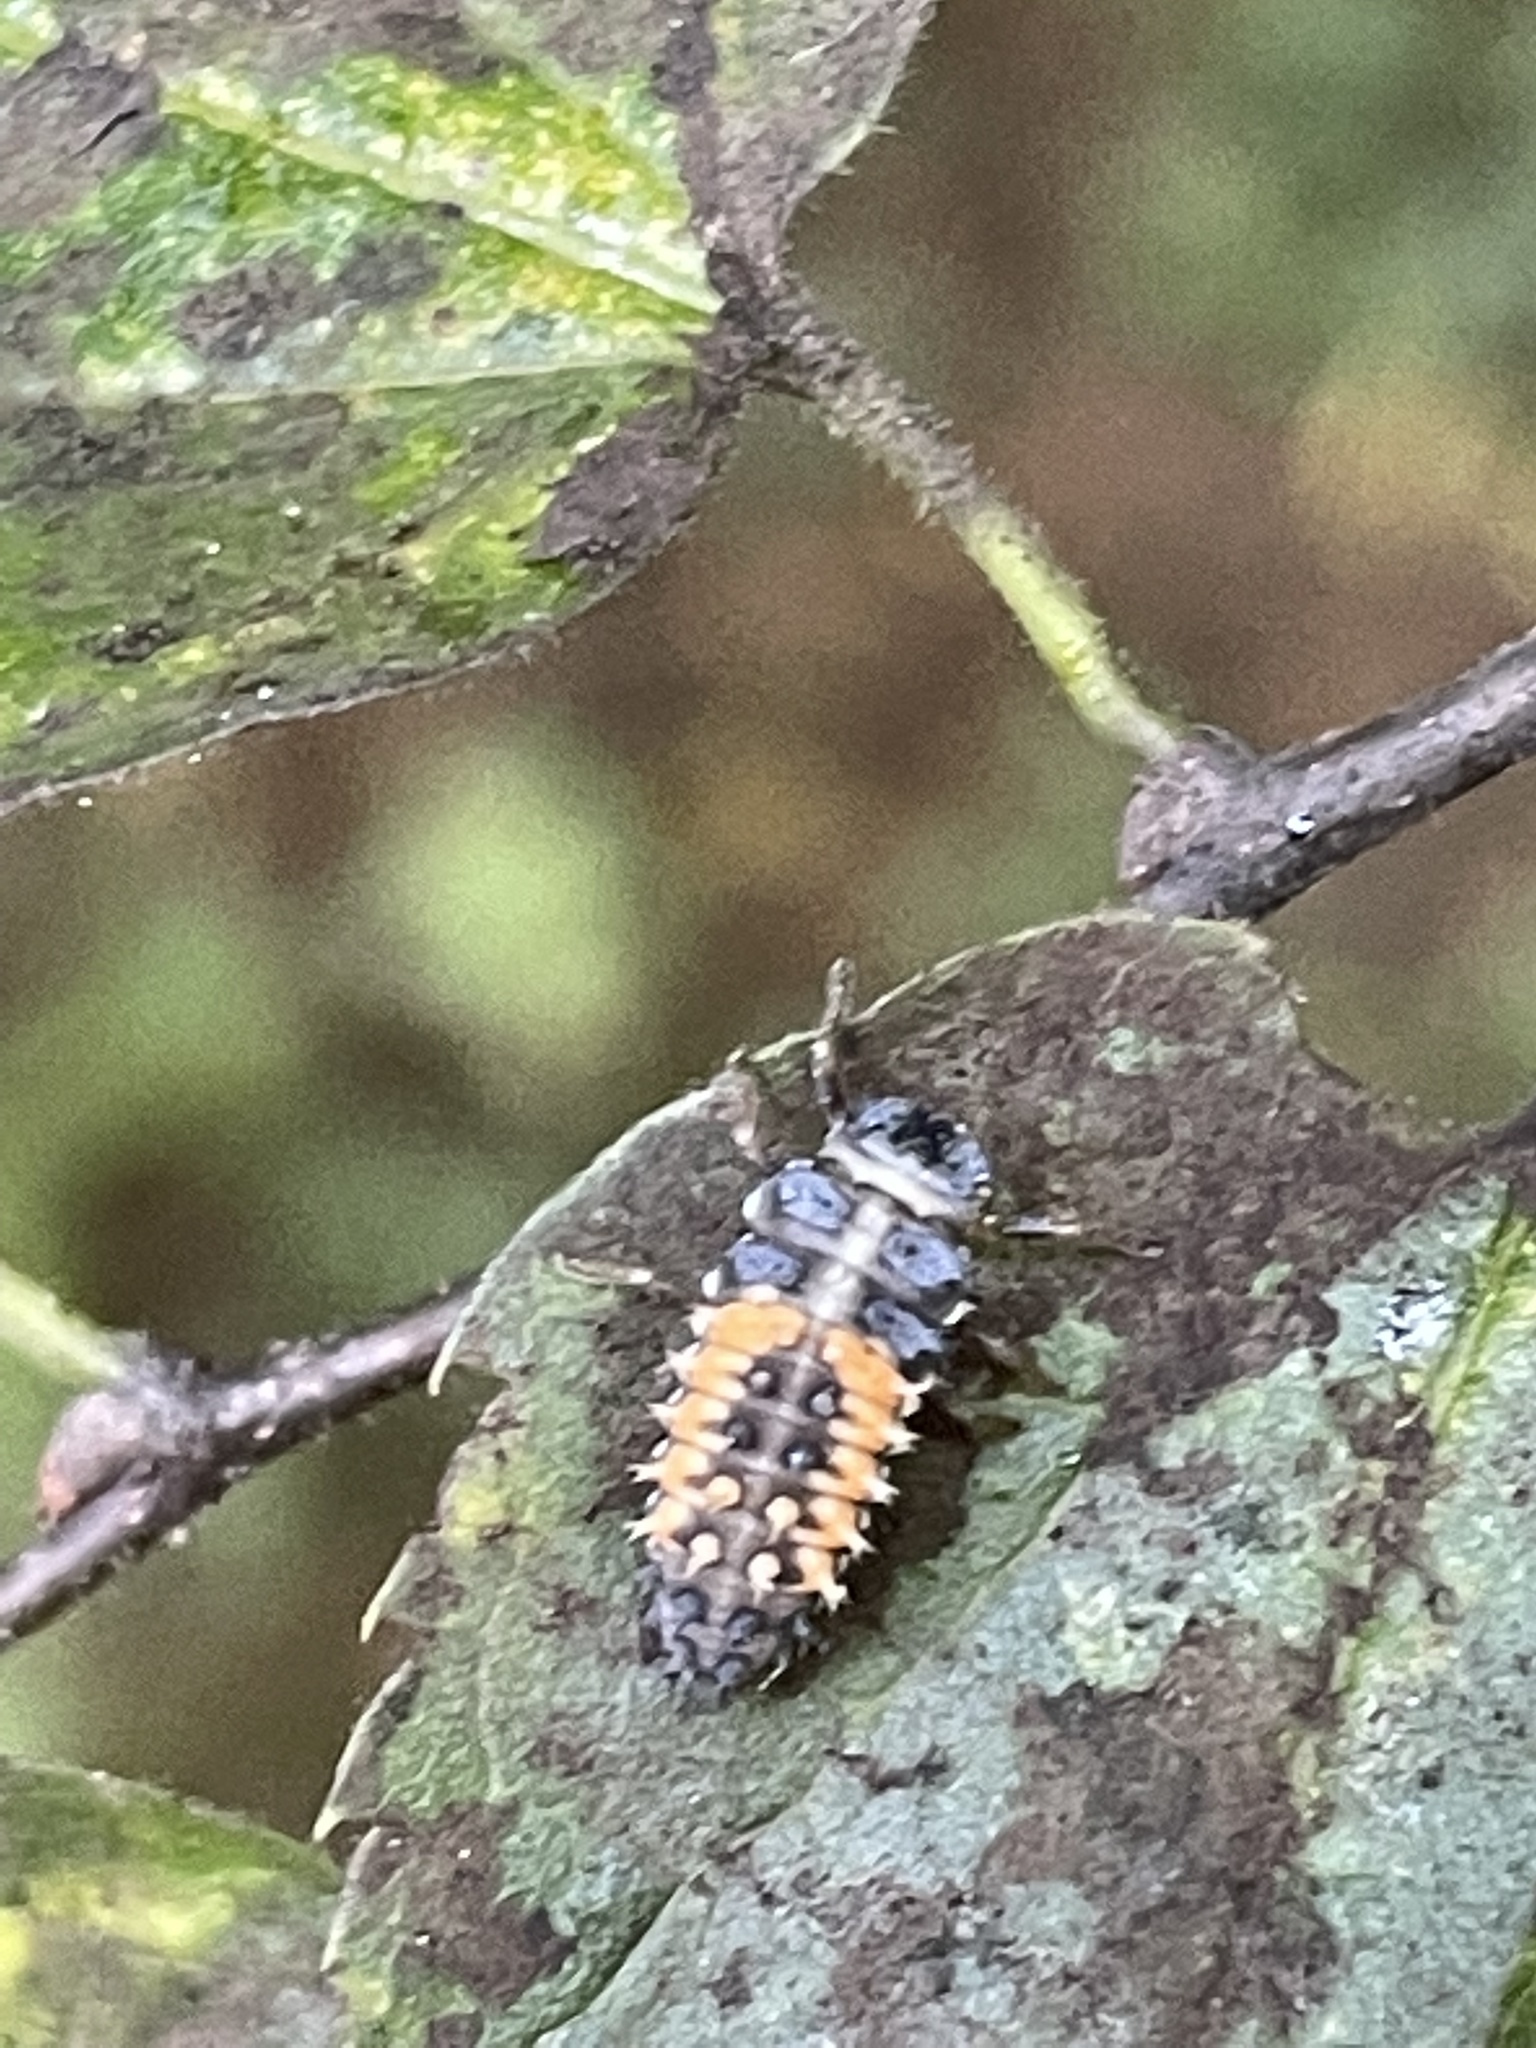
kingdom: Animalia
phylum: Arthropoda
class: Insecta
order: Coleoptera
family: Coccinellidae
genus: Harmonia
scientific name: Harmonia axyridis
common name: Harlequin ladybird
